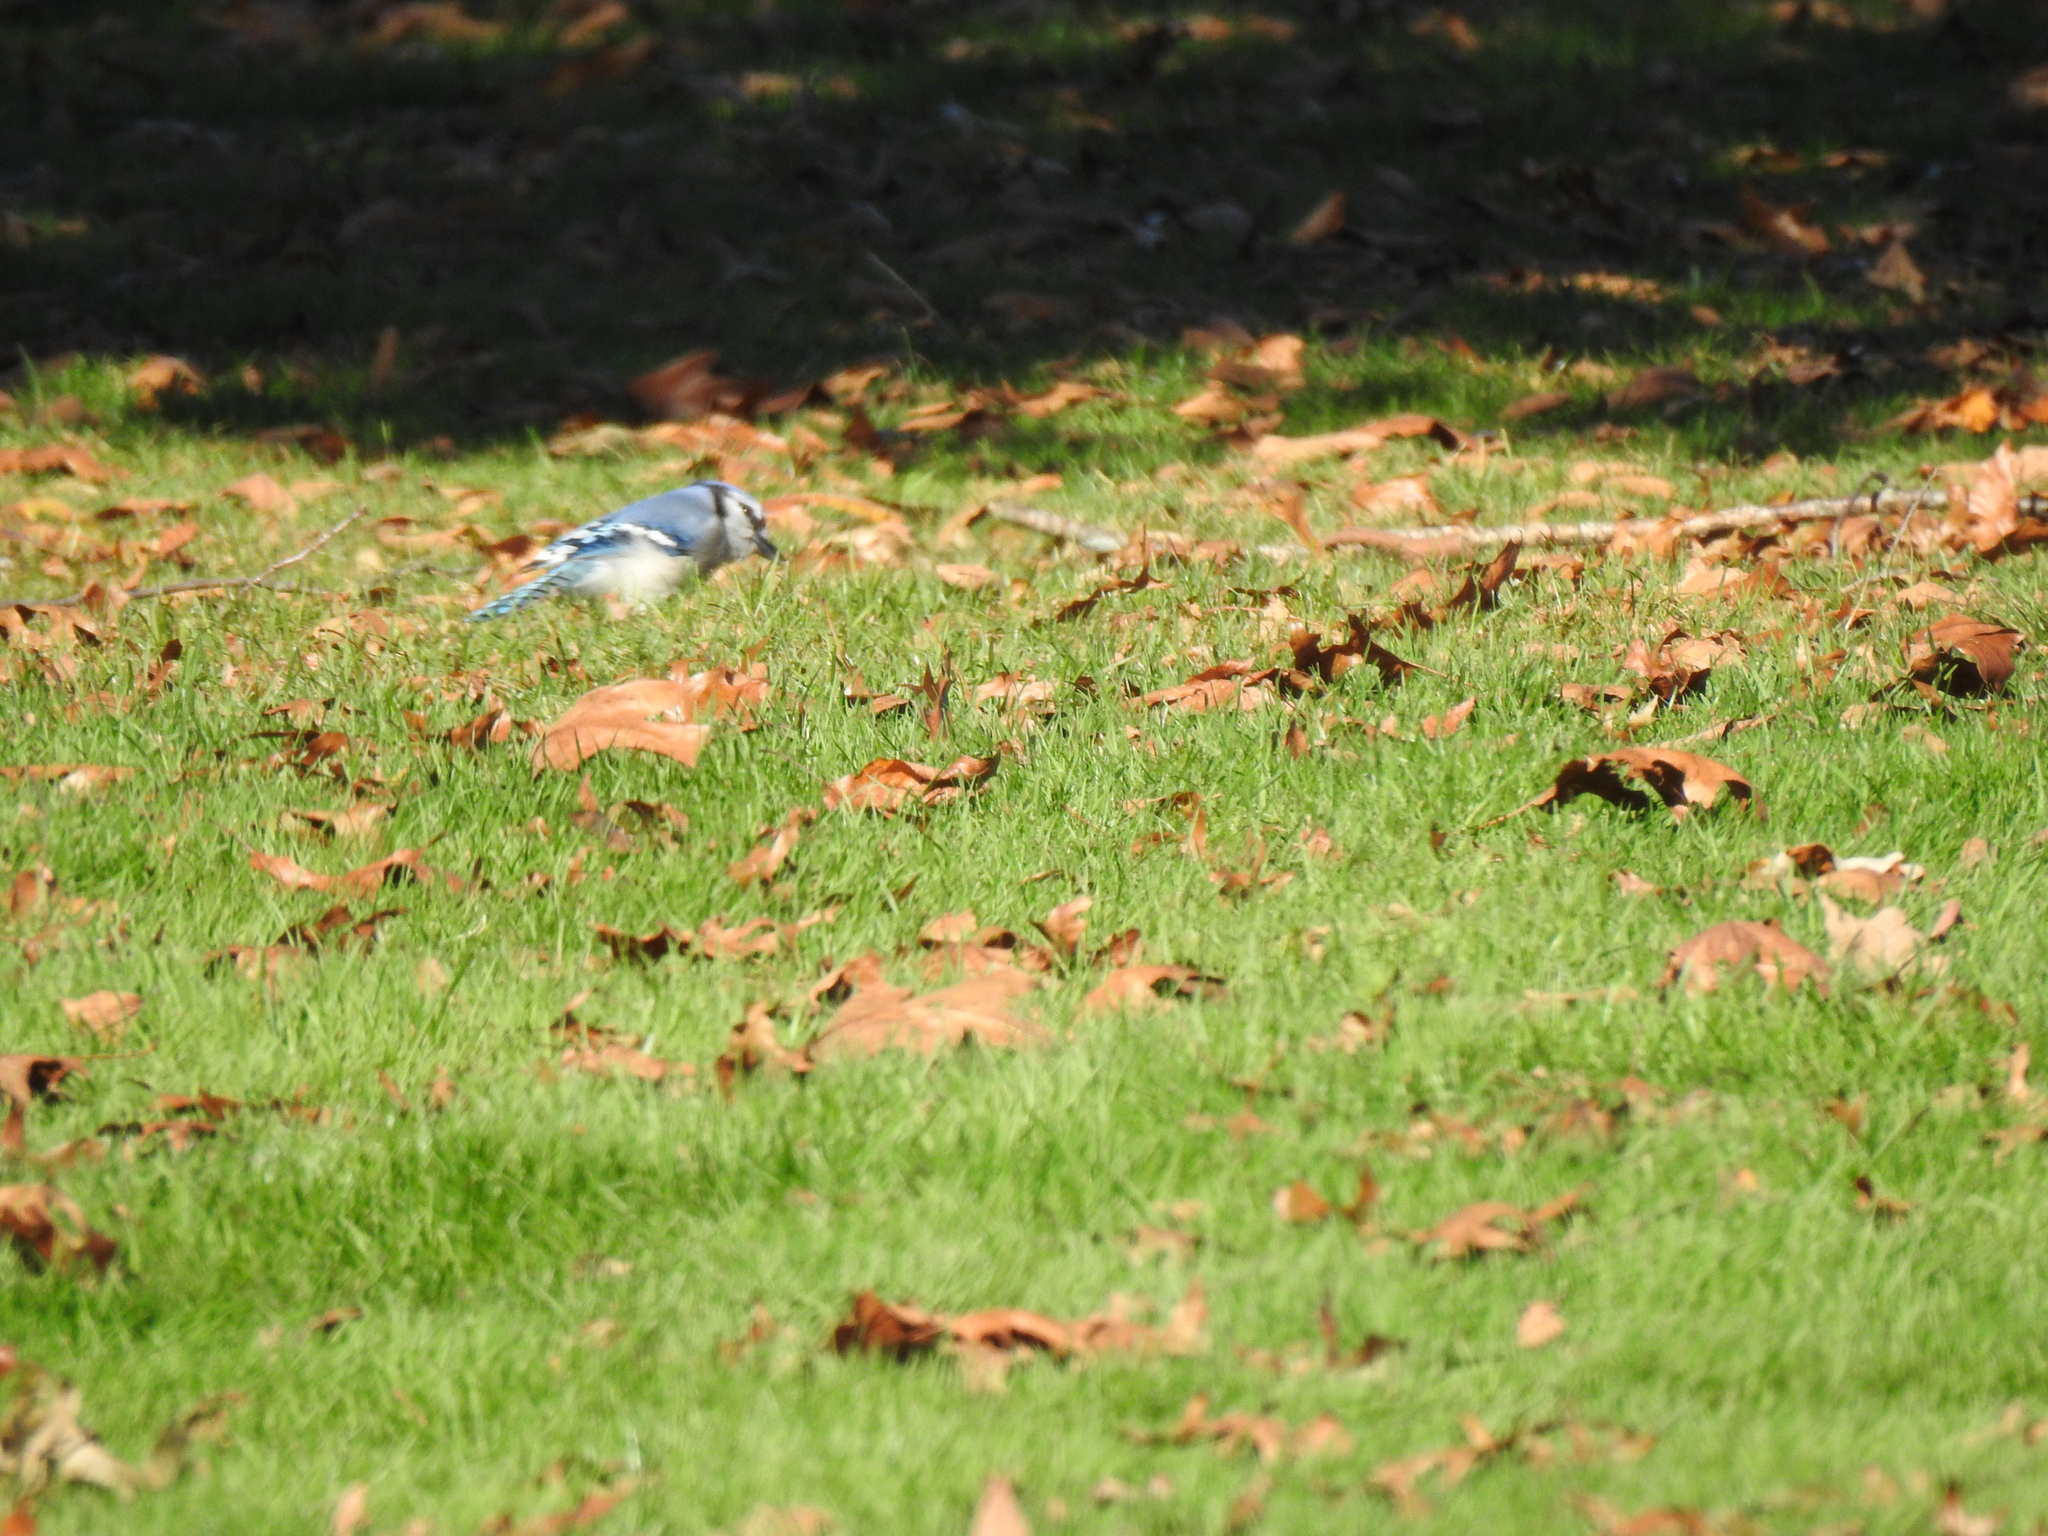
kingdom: Animalia
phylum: Chordata
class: Aves
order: Passeriformes
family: Corvidae
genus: Cyanocitta
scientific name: Cyanocitta cristata
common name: Blue jay
